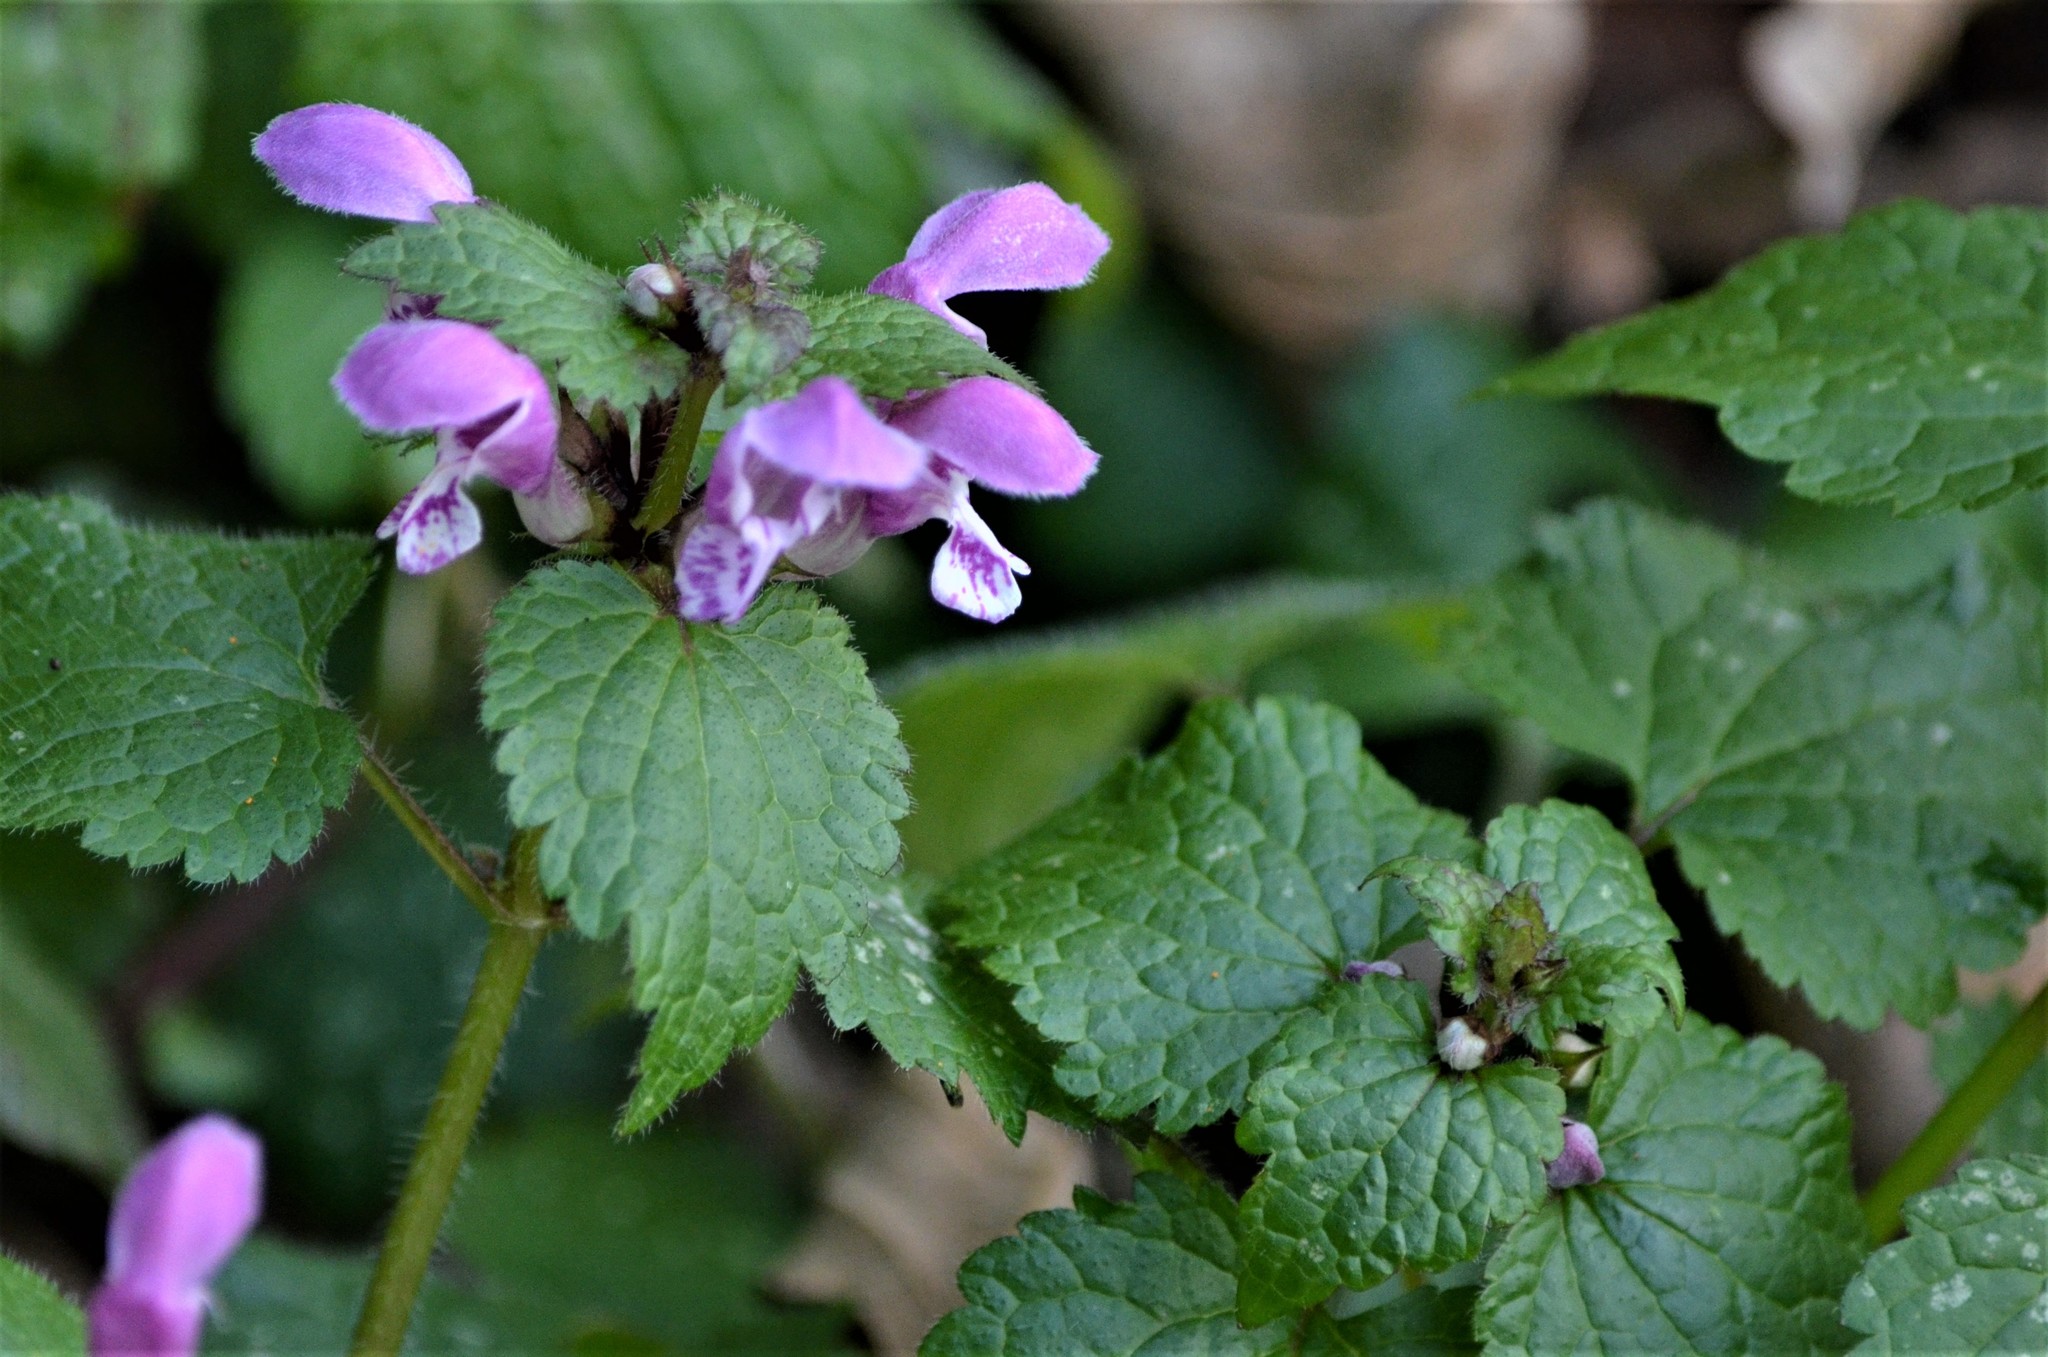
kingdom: Plantae
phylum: Tracheophyta
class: Magnoliopsida
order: Lamiales
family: Lamiaceae
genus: Lamium
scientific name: Lamium maculatum
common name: Spotted dead-nettle
